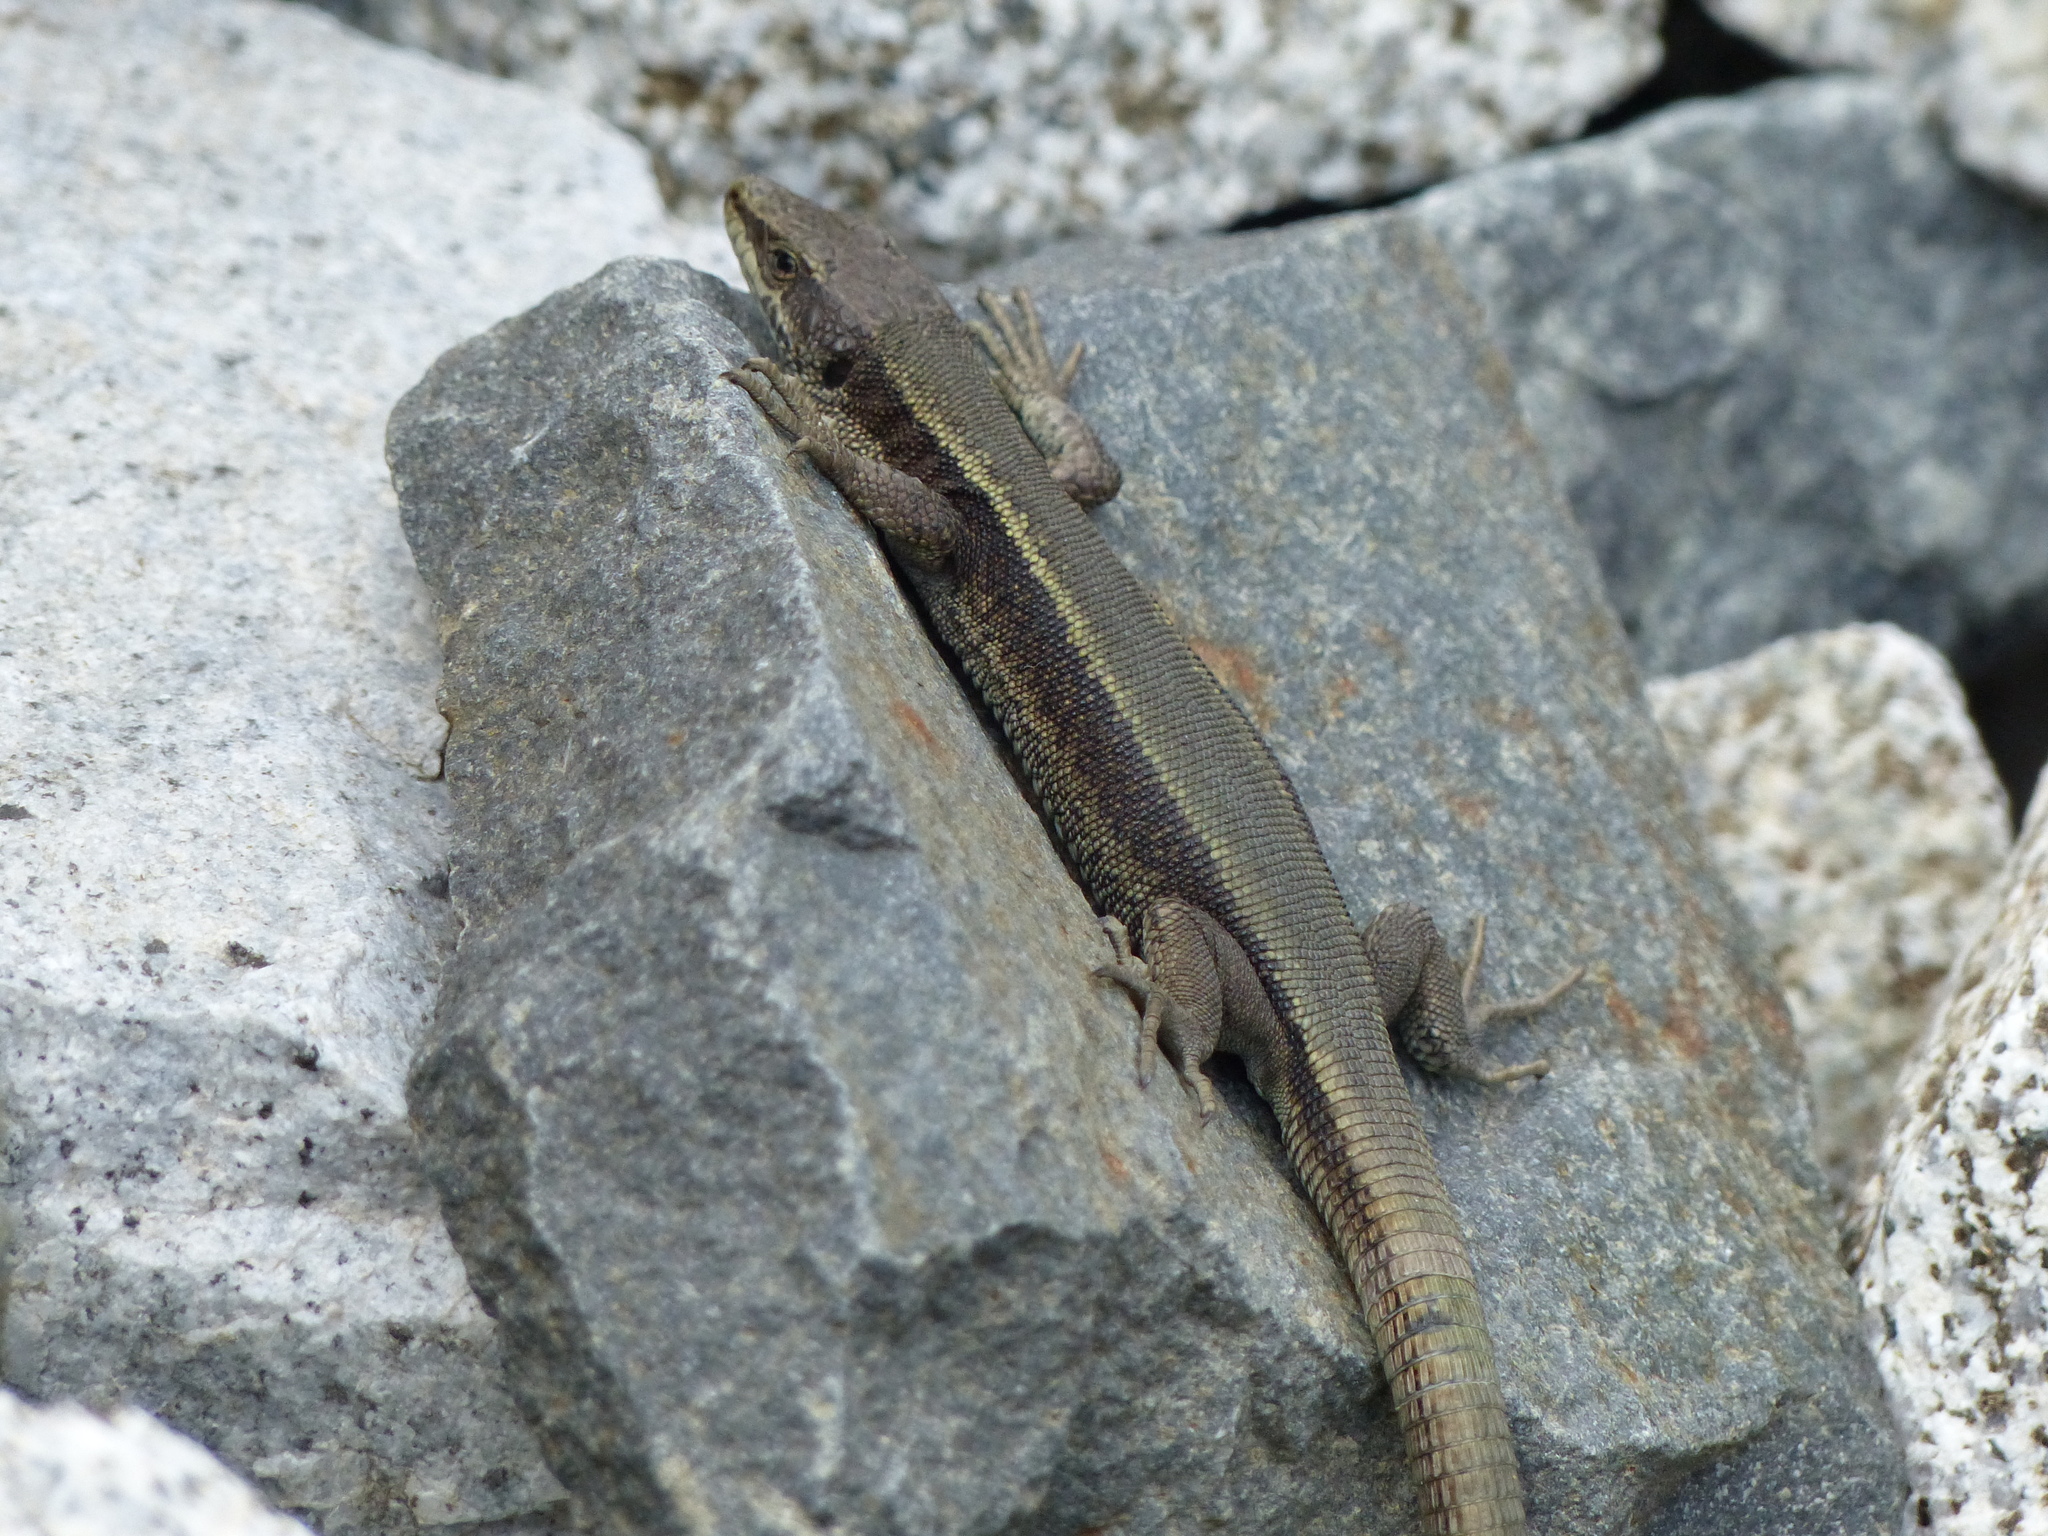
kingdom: Animalia
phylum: Chordata
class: Squamata
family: Lacertidae
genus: Iberolacerta
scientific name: Iberolacerta bonnali
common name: Pyrenean rock lizard
